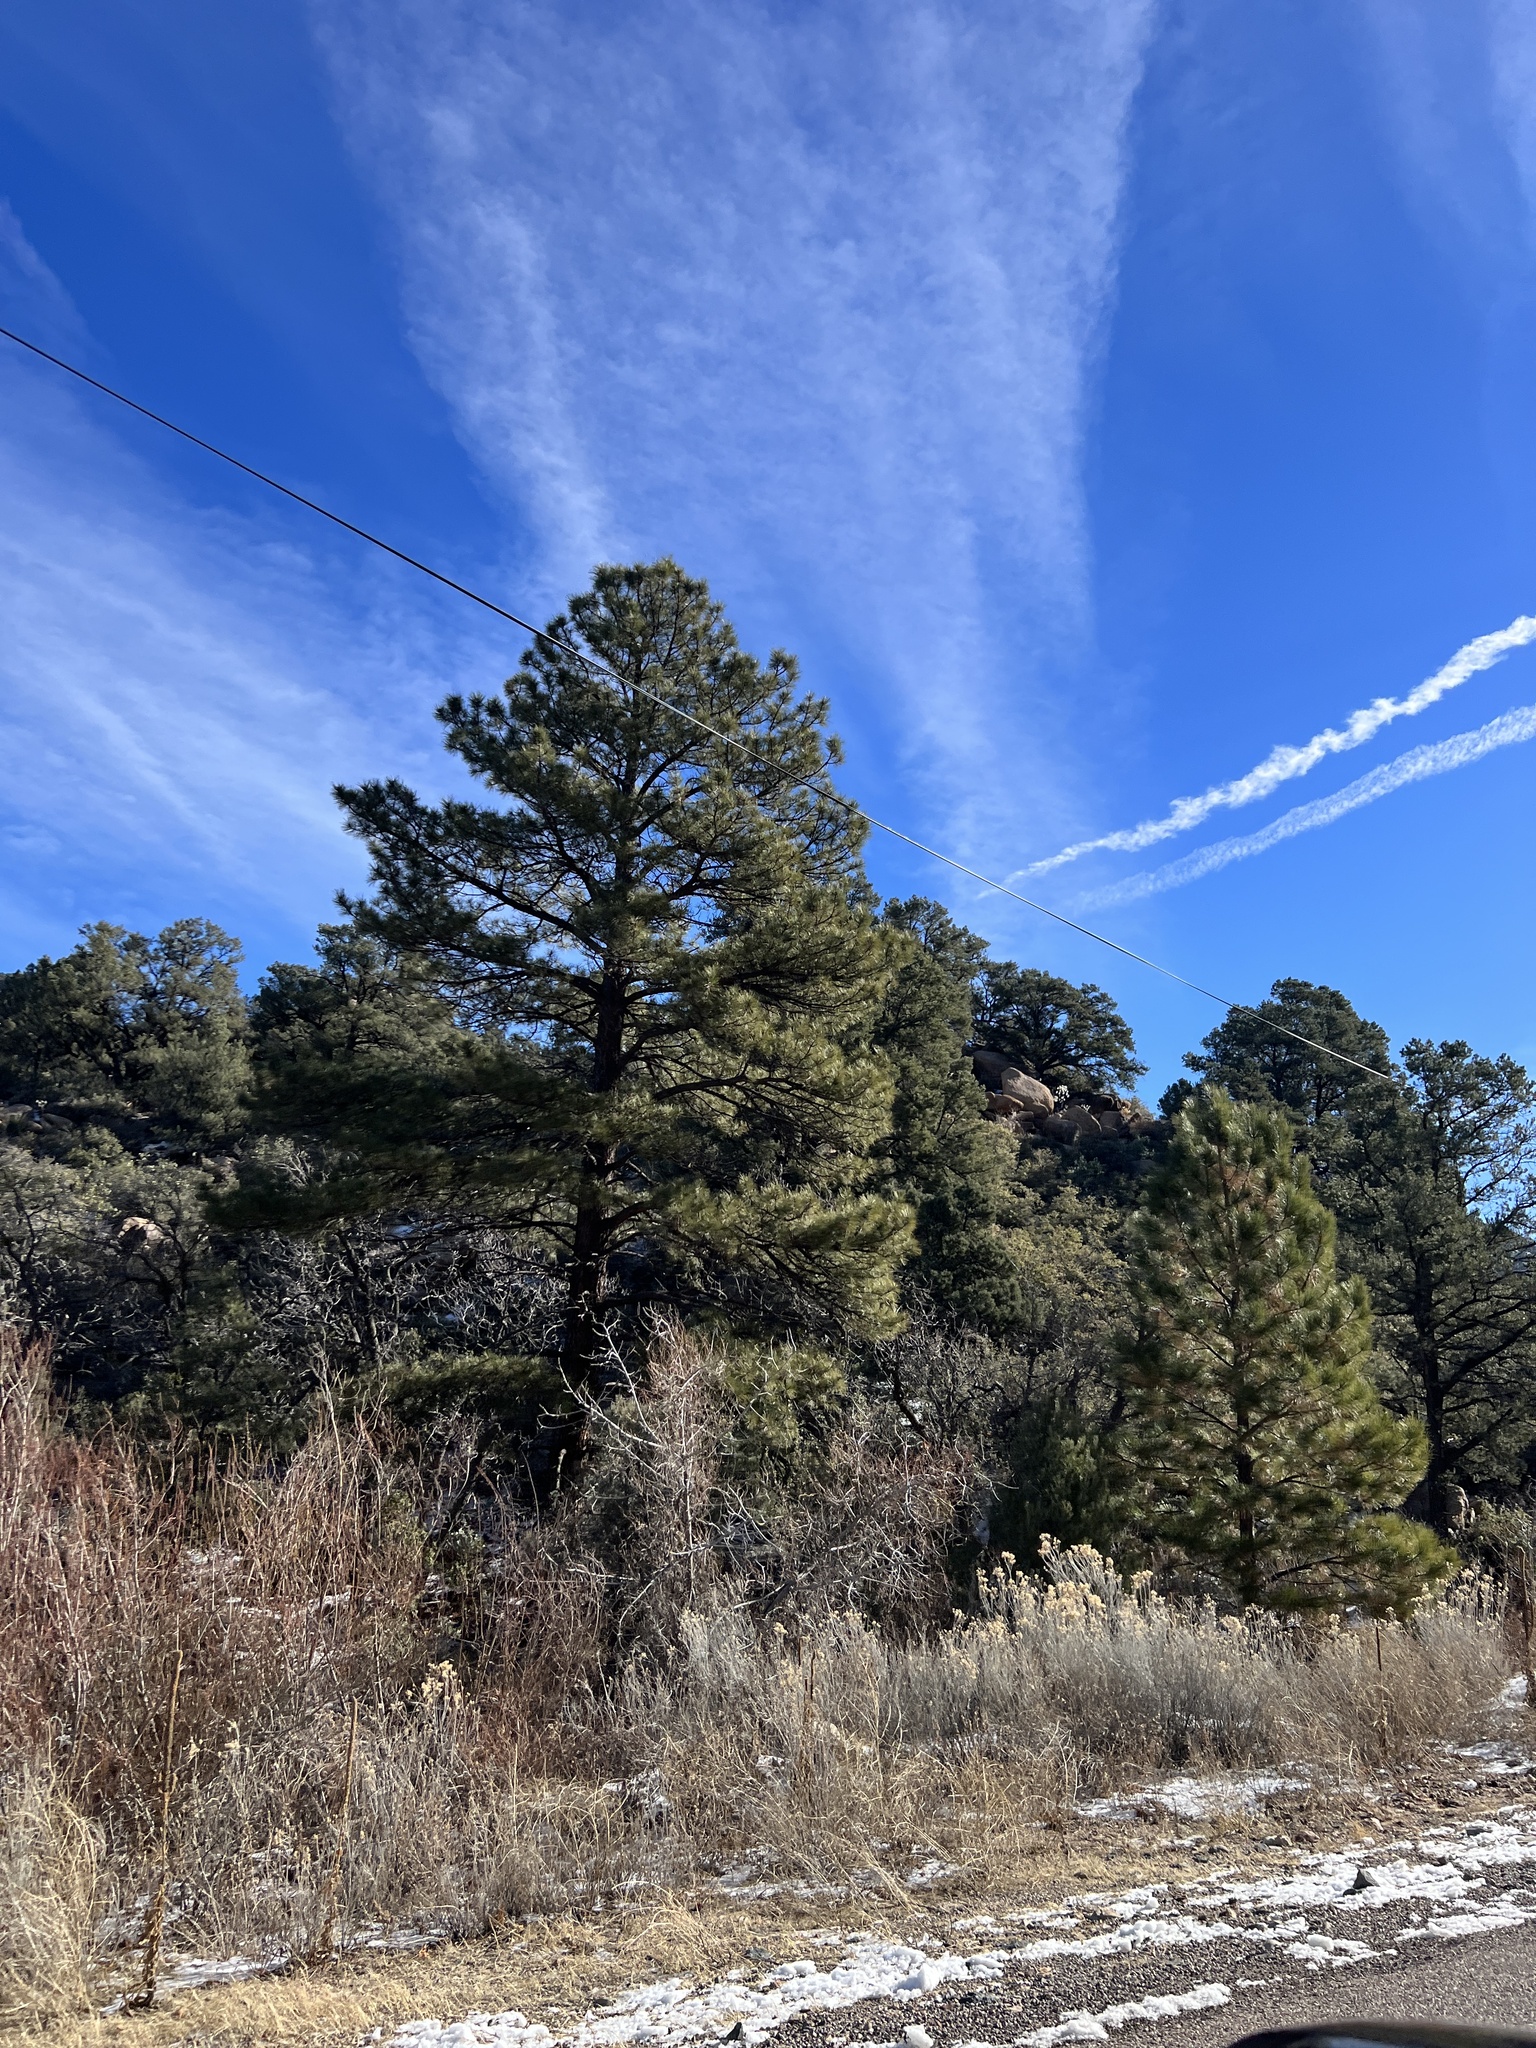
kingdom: Plantae
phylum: Tracheophyta
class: Pinopsida
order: Pinales
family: Pinaceae
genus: Pinus
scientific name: Pinus ponderosa
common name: Western yellow-pine
